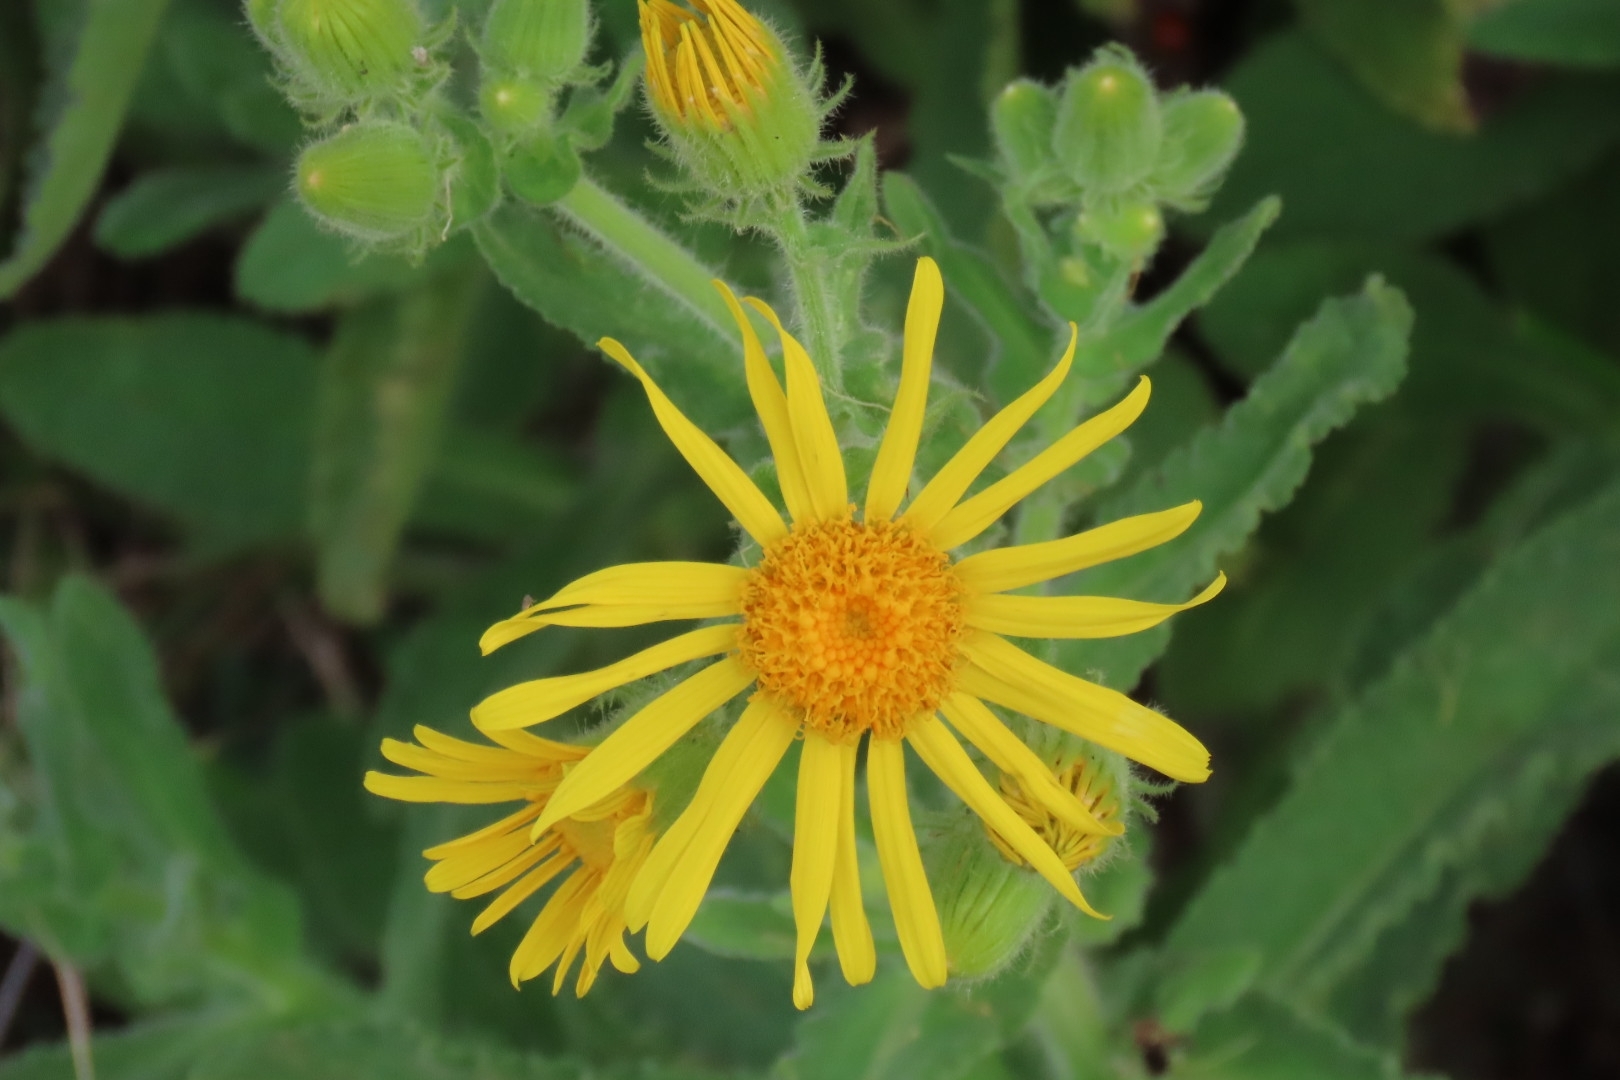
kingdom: Plantae
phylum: Tracheophyta
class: Magnoliopsida
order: Asterales
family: Asteraceae
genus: Senecio
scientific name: Senecio selloi
